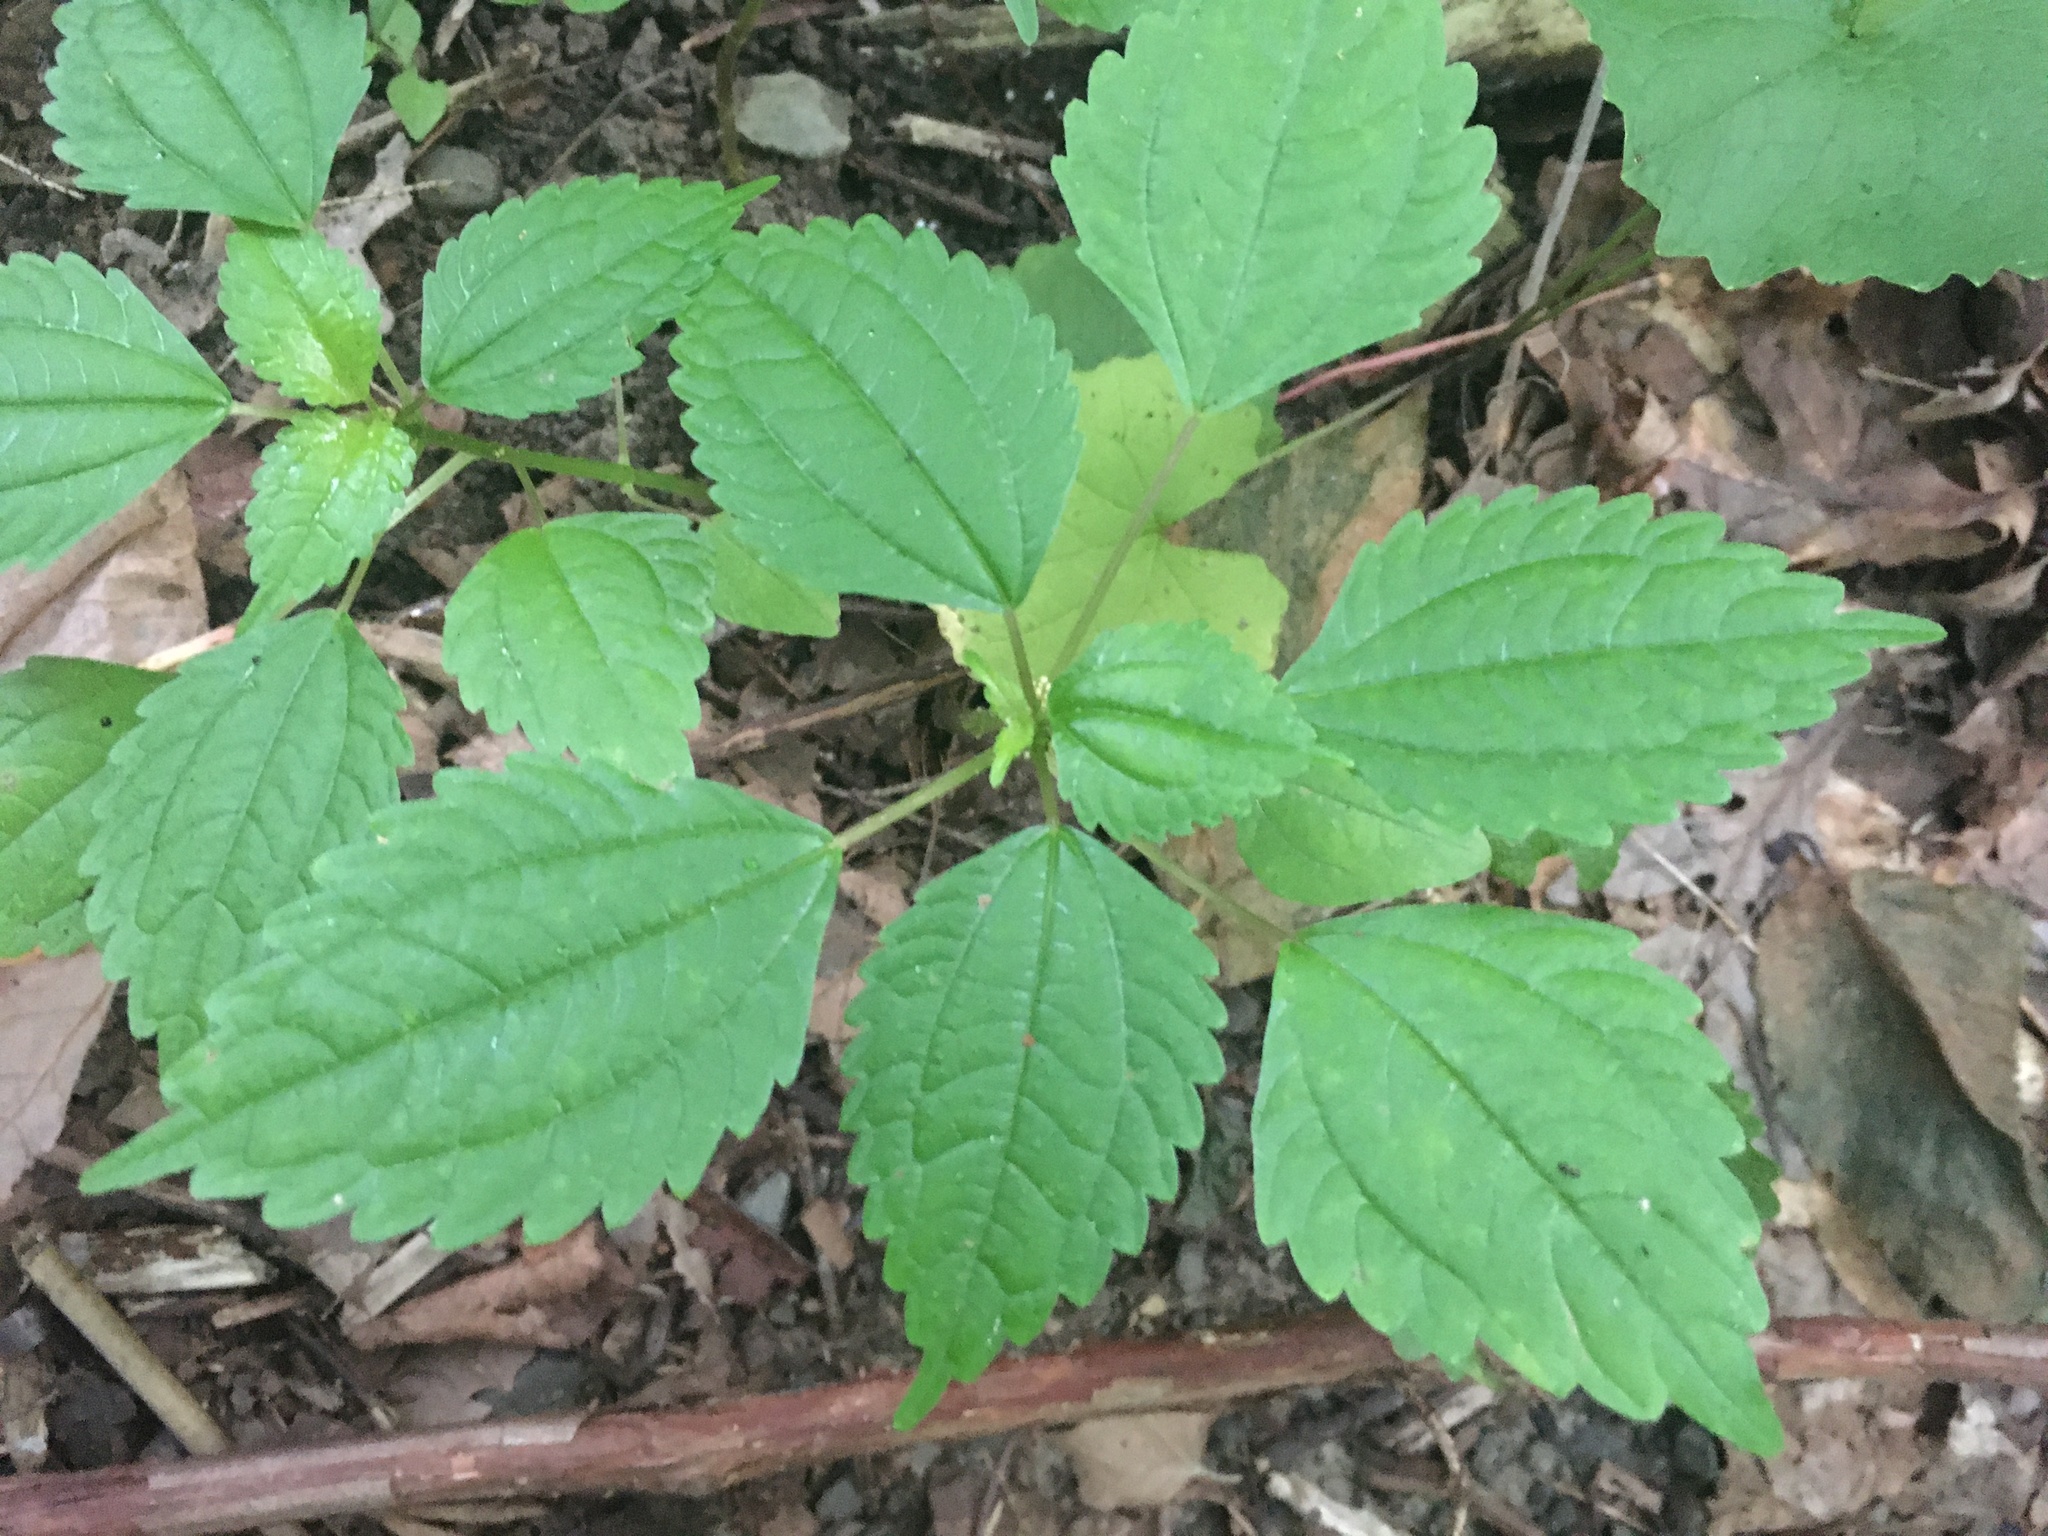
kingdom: Plantae
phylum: Tracheophyta
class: Magnoliopsida
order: Rosales
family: Urticaceae
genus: Pilea
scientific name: Pilea pumila
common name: Clearweed
